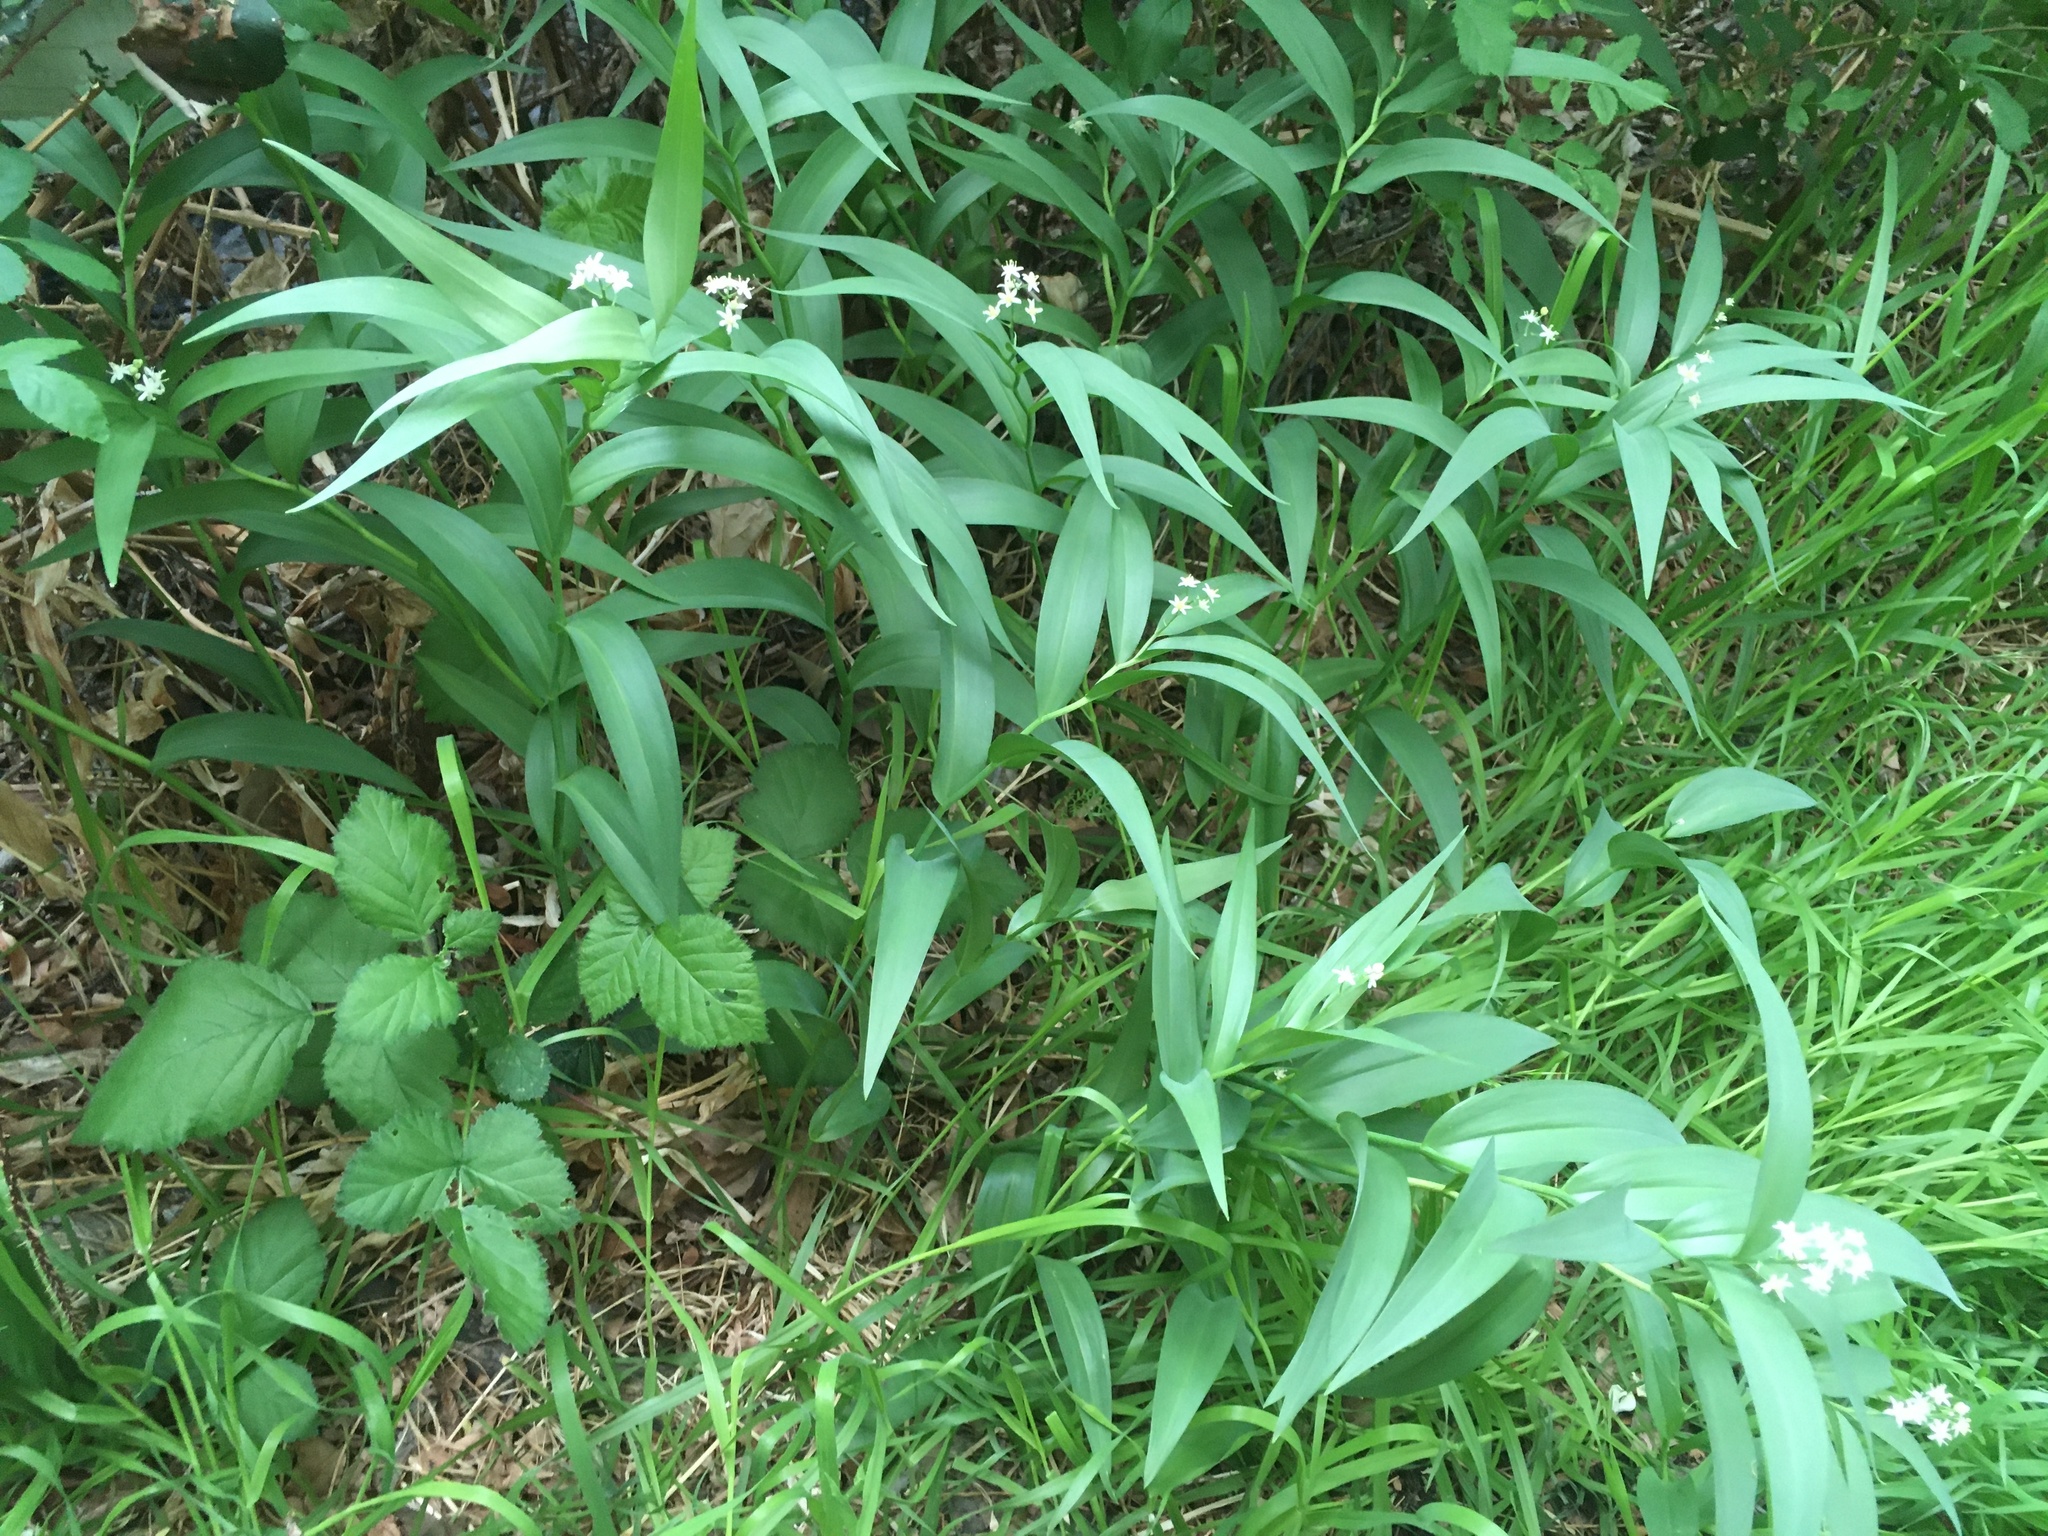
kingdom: Plantae
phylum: Tracheophyta
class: Liliopsida
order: Asparagales
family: Asparagaceae
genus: Maianthemum
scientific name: Maianthemum stellatum
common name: Little false solomon's seal
